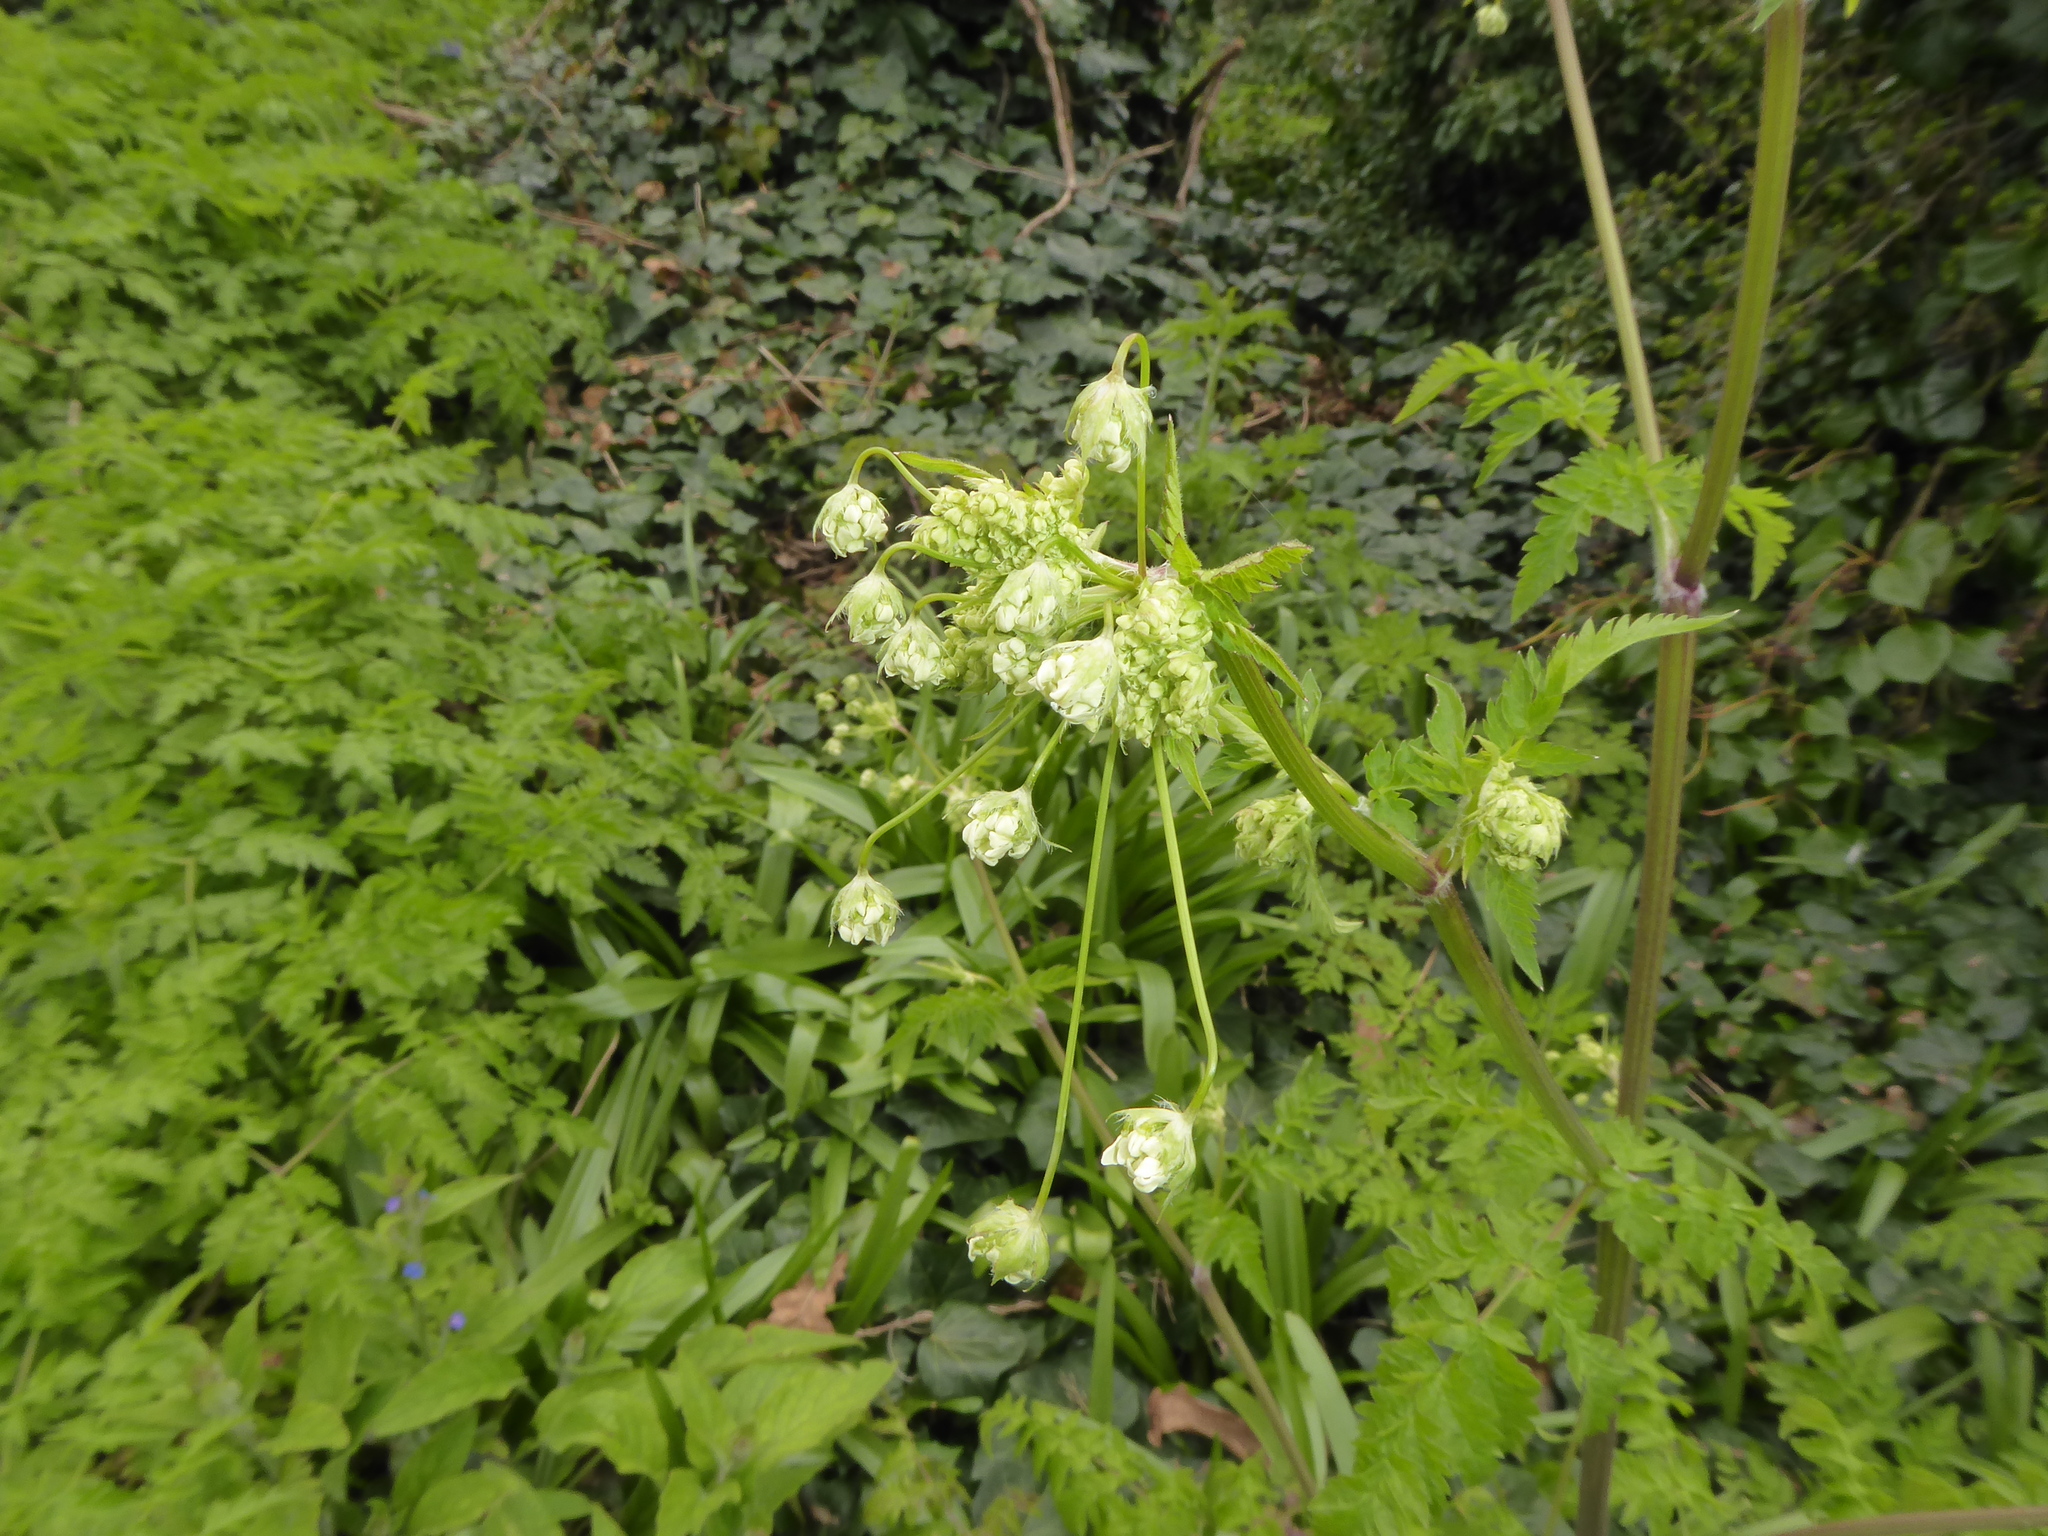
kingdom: Plantae
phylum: Tracheophyta
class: Magnoliopsida
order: Apiales
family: Apiaceae
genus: Anthriscus
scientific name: Anthriscus sylvestris
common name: Cow parsley
